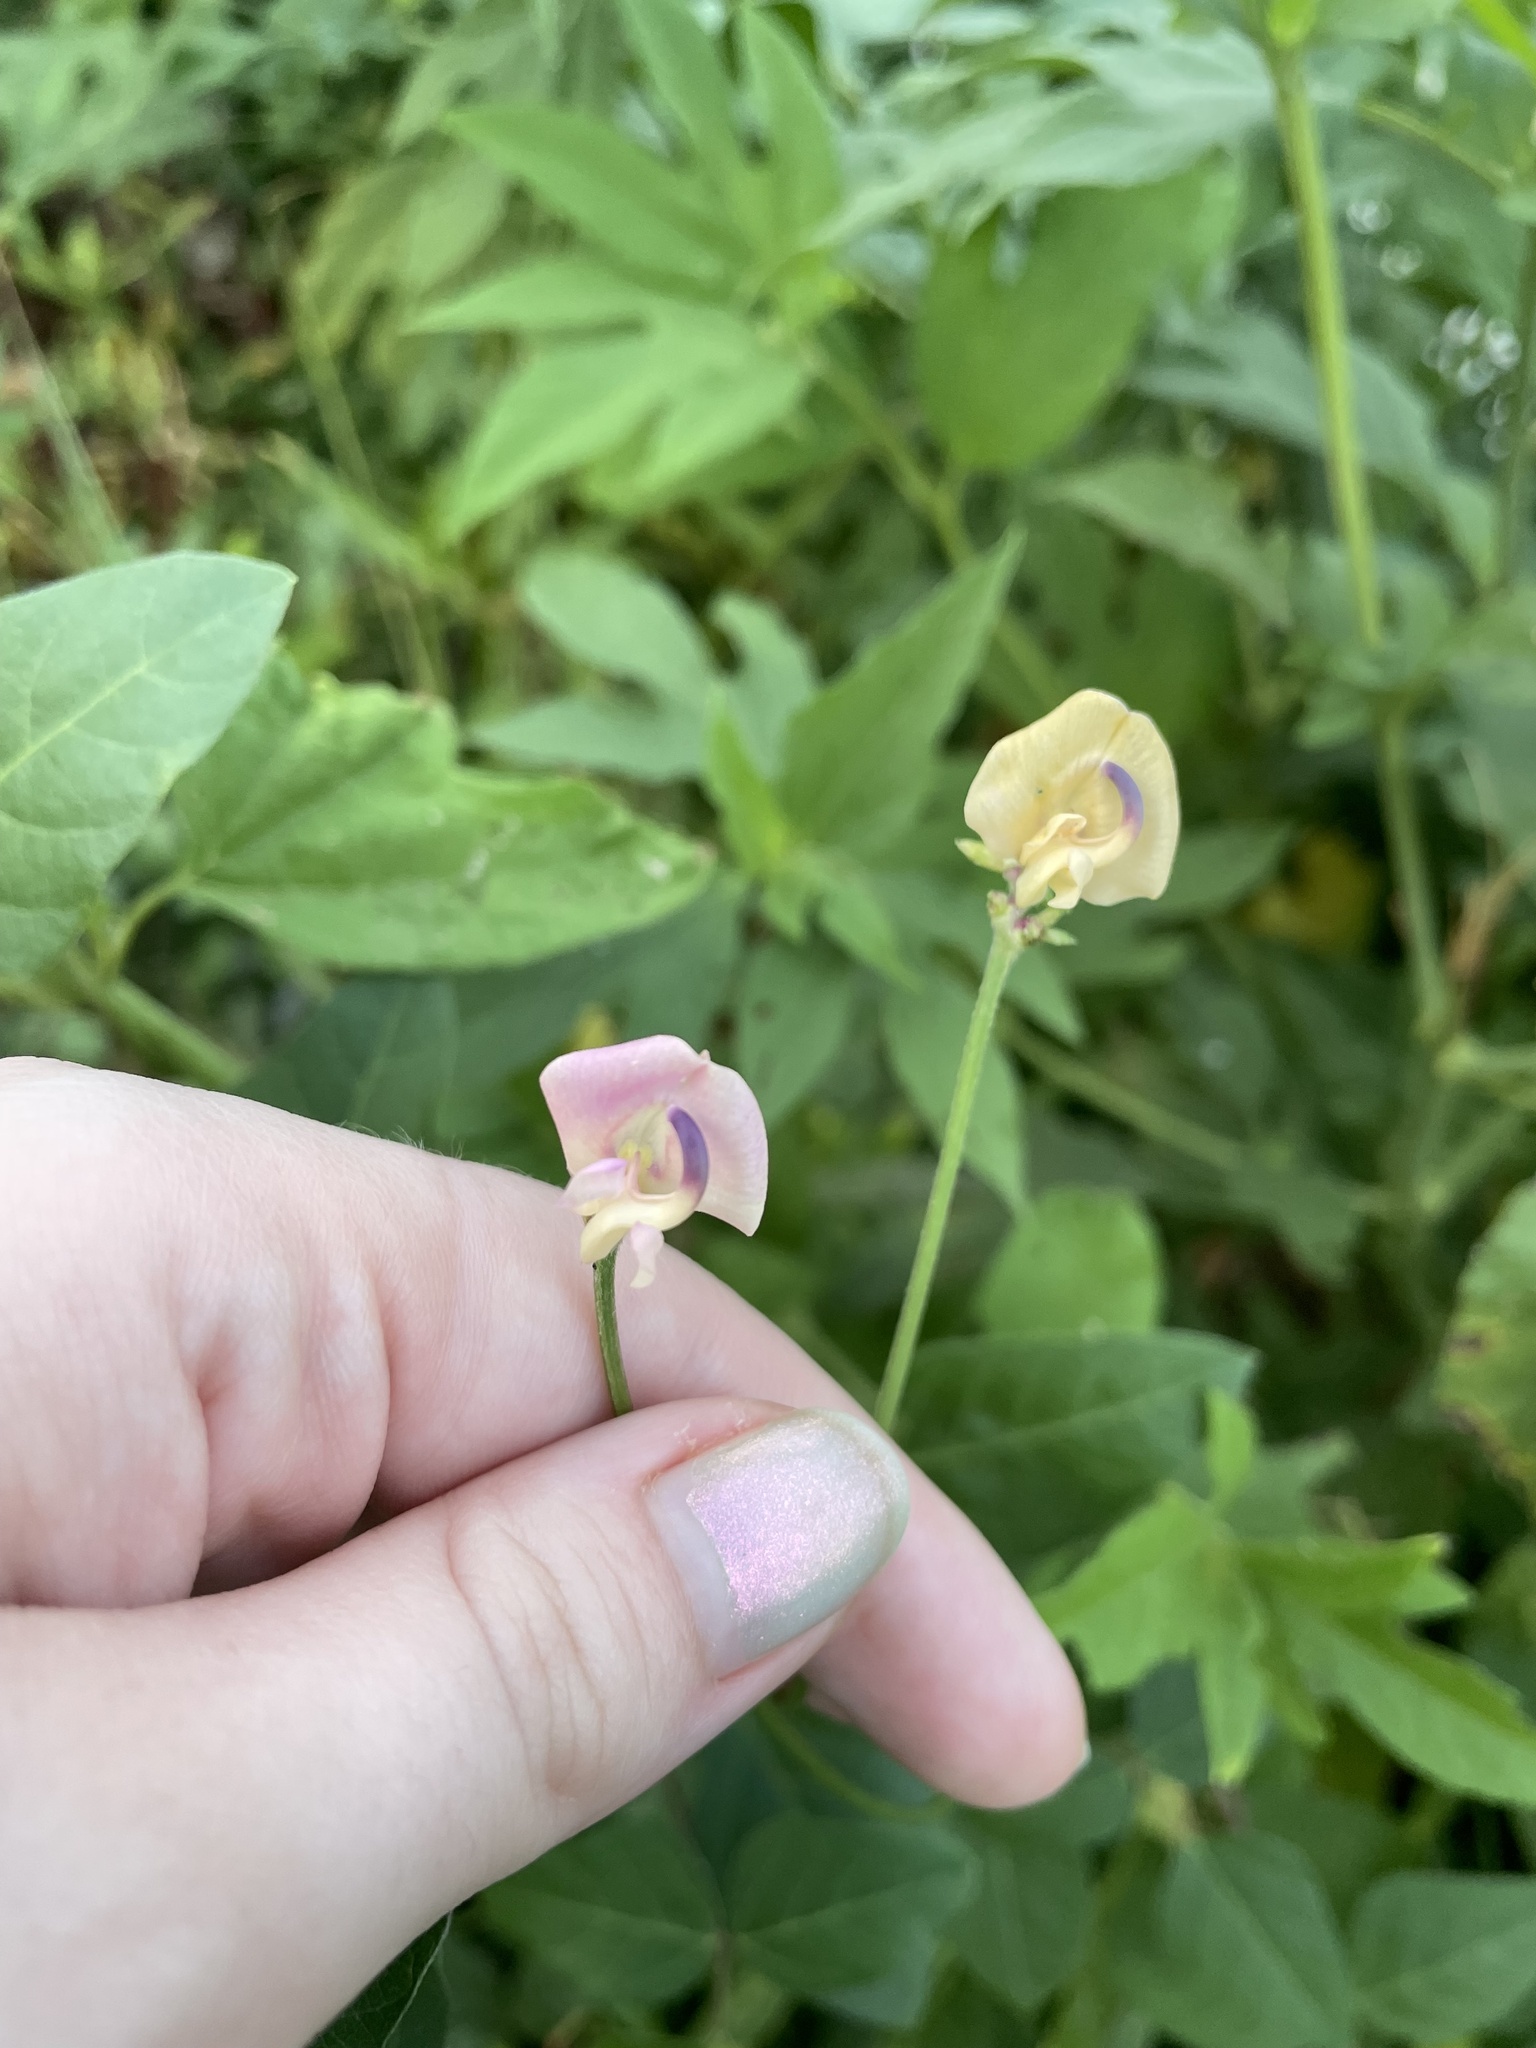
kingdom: Plantae
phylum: Tracheophyta
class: Magnoliopsida
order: Fabales
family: Fabaceae
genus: Strophostyles
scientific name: Strophostyles helvola
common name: Trailing wild bean
